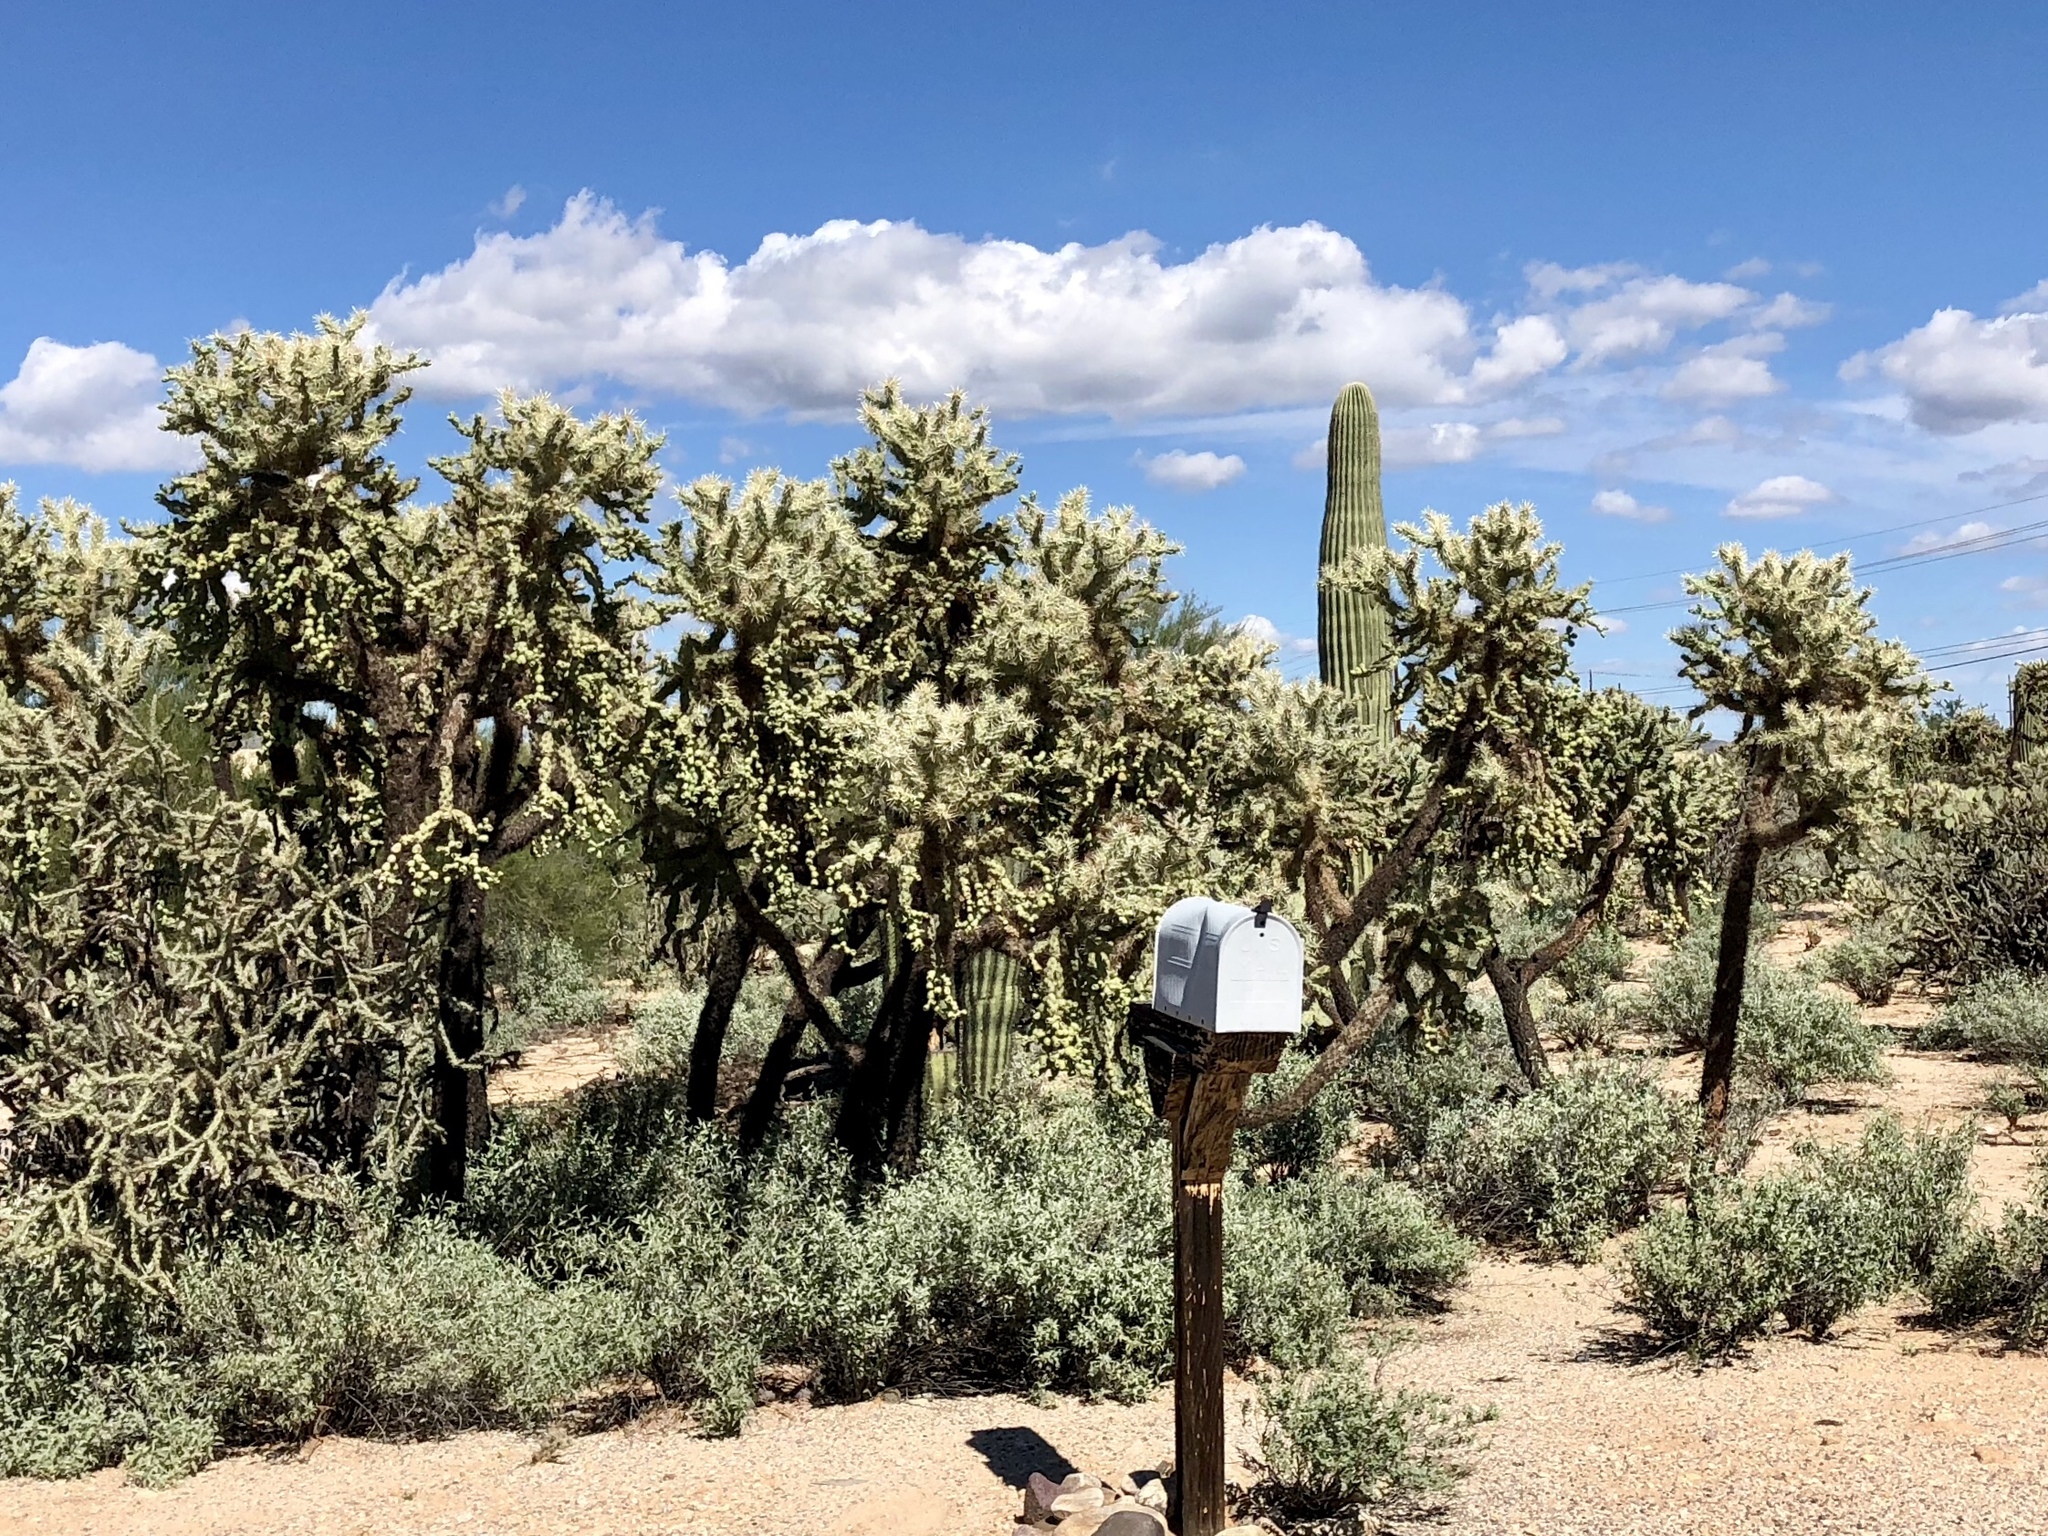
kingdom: Plantae
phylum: Tracheophyta
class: Magnoliopsida
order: Caryophyllales
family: Cactaceae
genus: Cylindropuntia
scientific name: Cylindropuntia fulgida
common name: Jumping cholla
